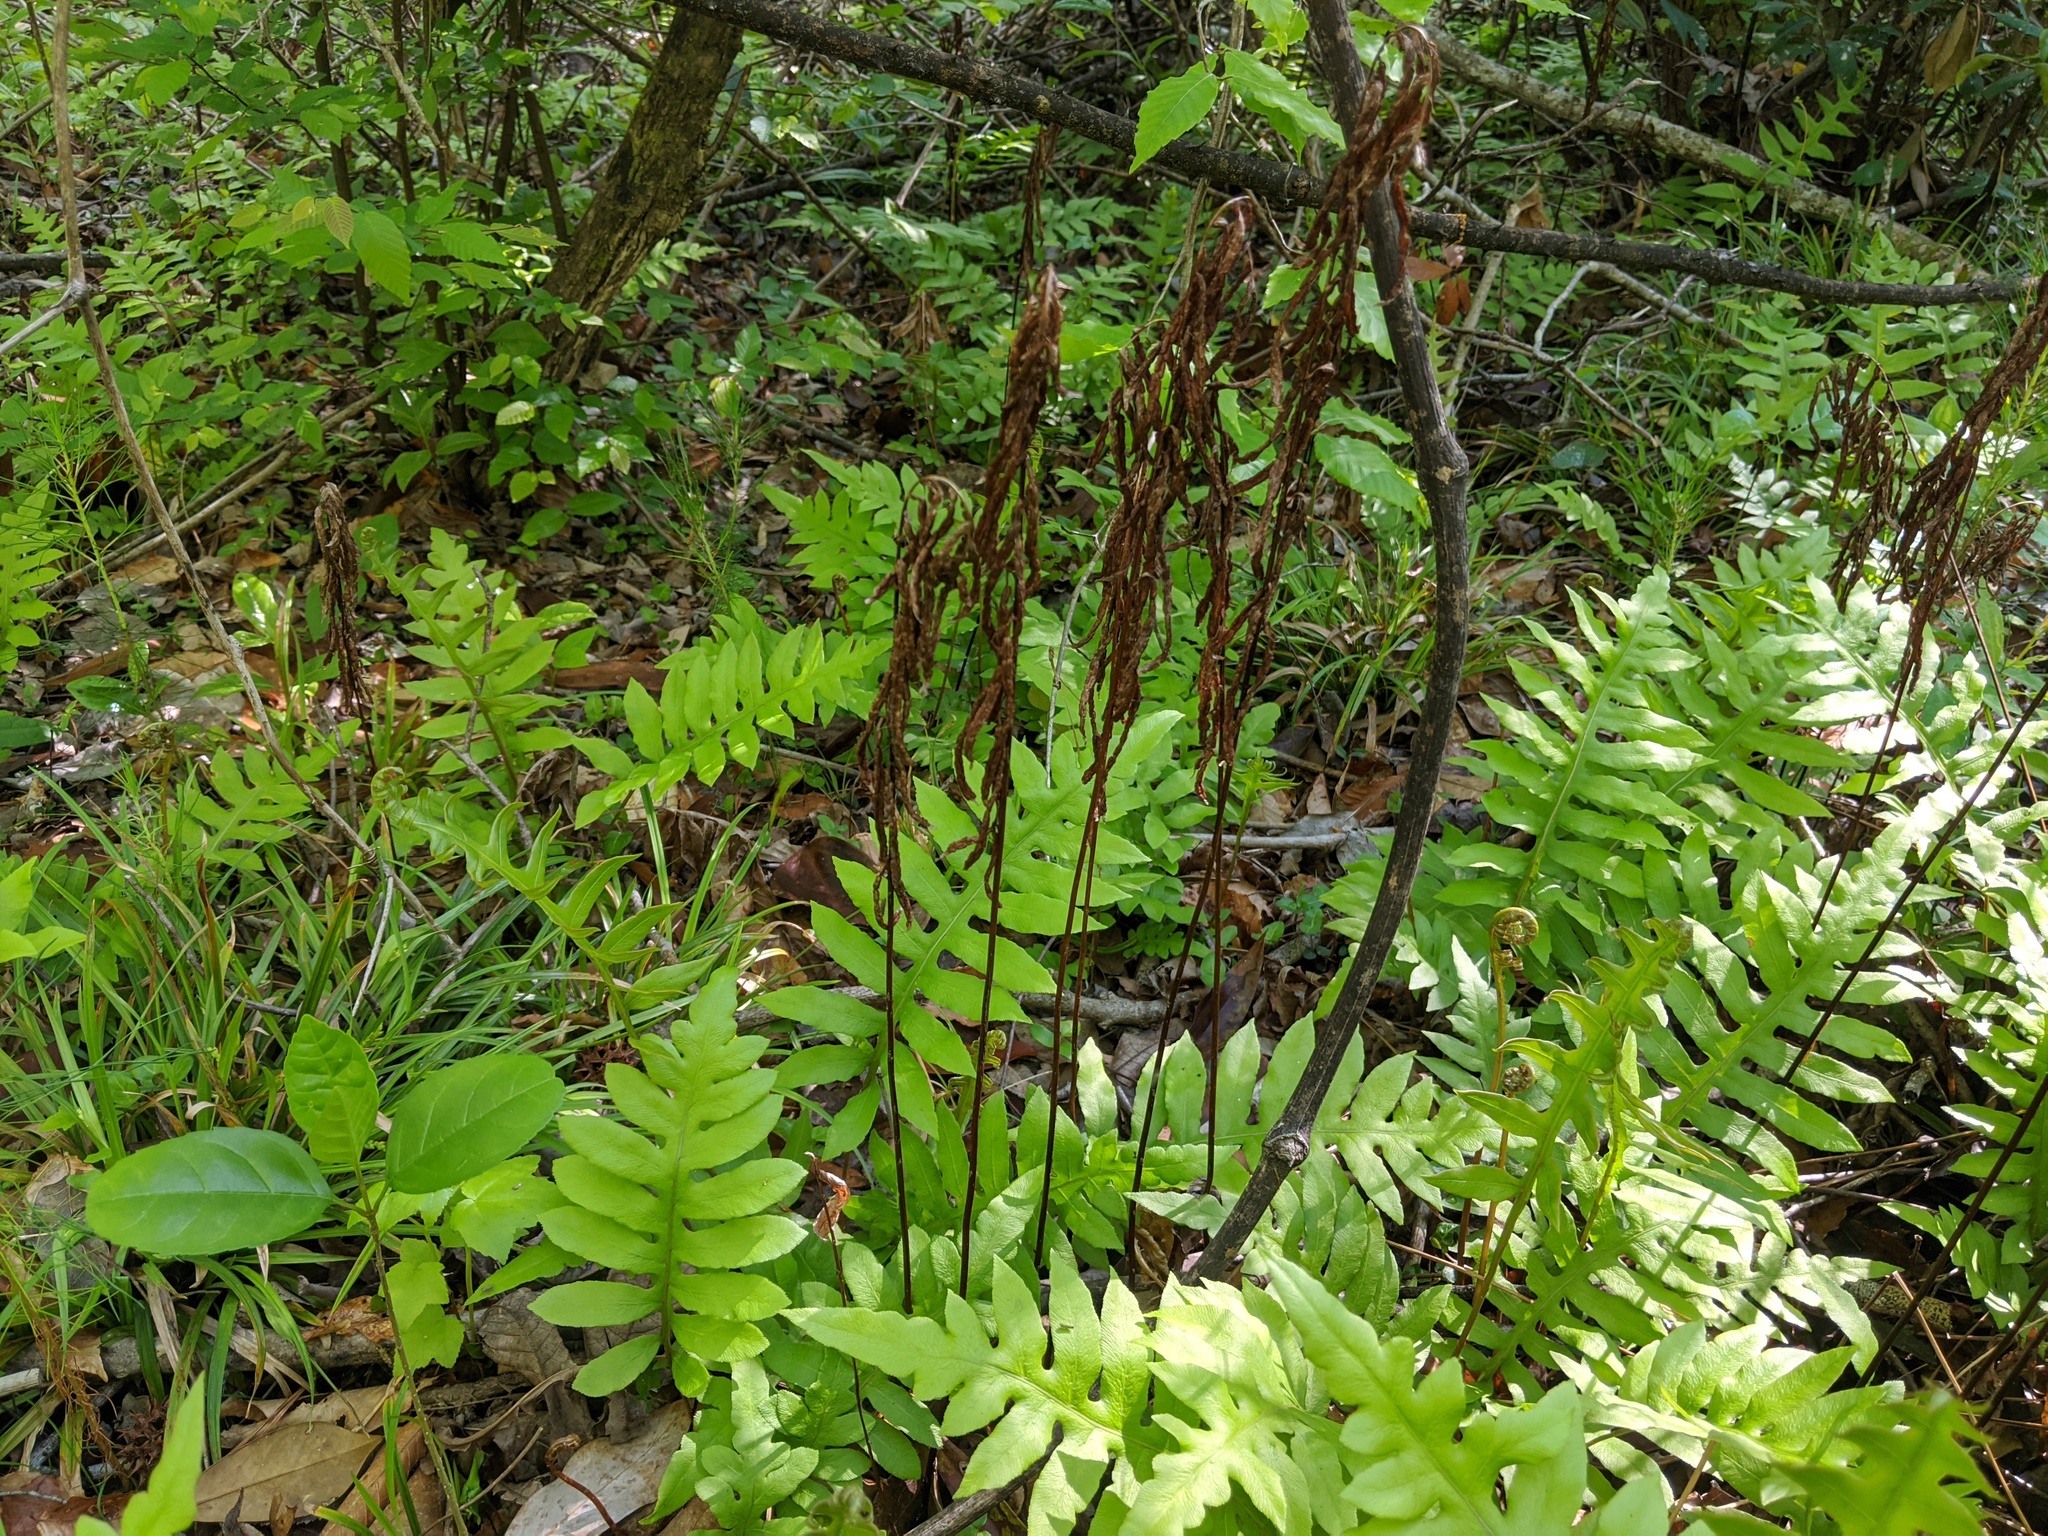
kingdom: Plantae
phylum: Tracheophyta
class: Polypodiopsida
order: Polypodiales
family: Blechnaceae
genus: Lorinseria
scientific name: Lorinseria areolata
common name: Dwarf chain fern
